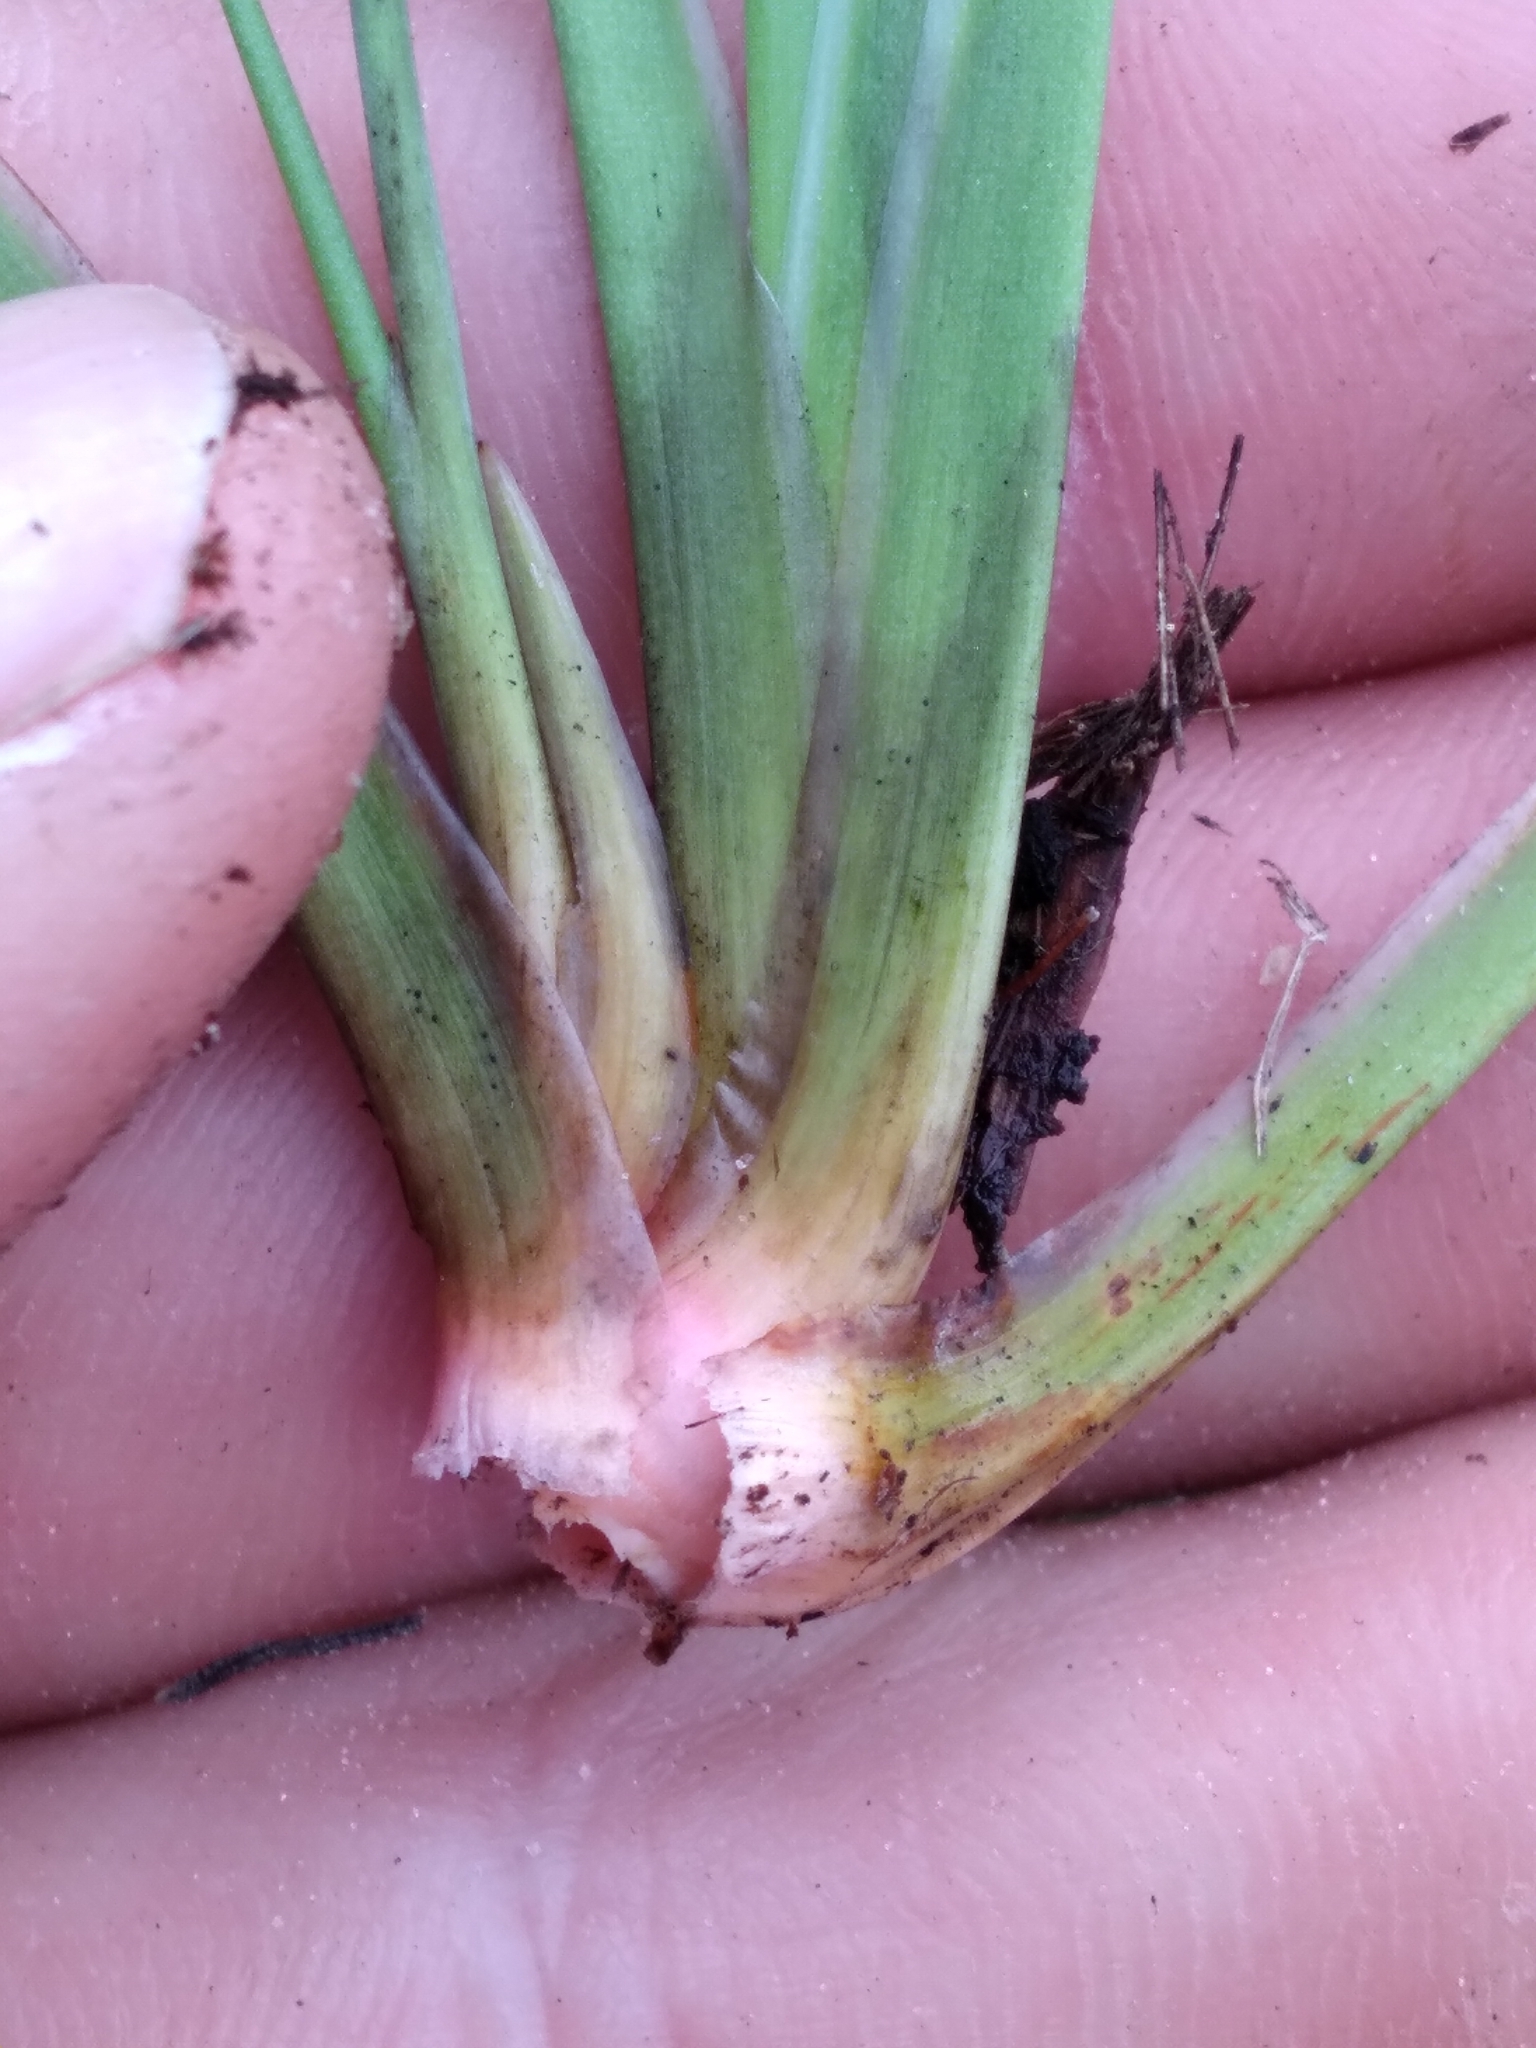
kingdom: Plantae
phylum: Tracheophyta
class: Liliopsida
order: Alismatales
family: Tofieldiaceae
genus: Pleea
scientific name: Pleea tenuifolia
